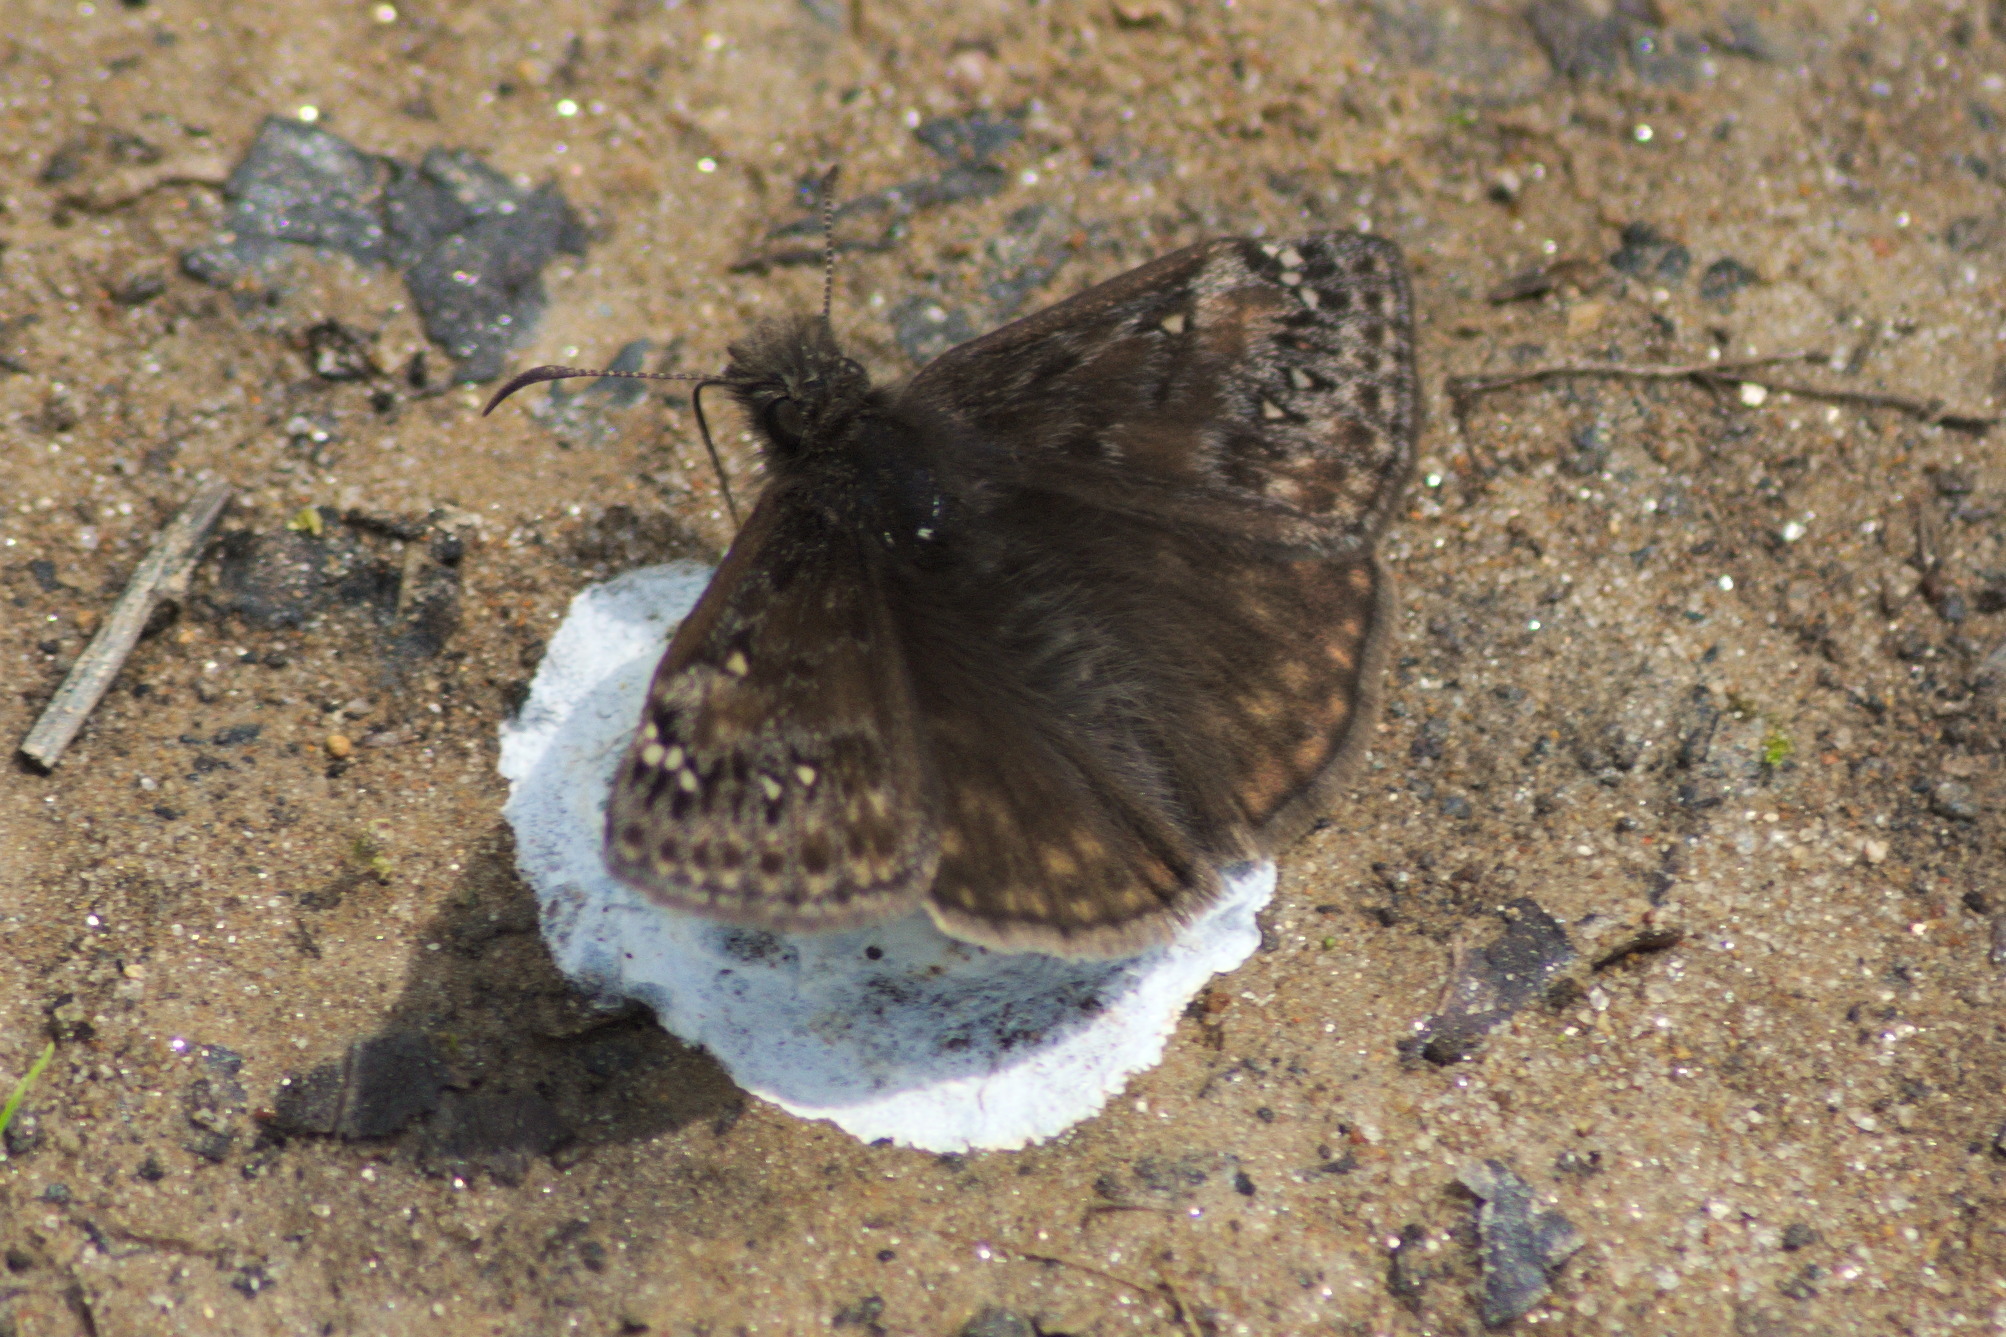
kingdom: Animalia
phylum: Arthropoda
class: Insecta
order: Lepidoptera
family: Hesperiidae
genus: Erynnis
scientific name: Erynnis juvenalis
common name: Juvenal's duskywing
